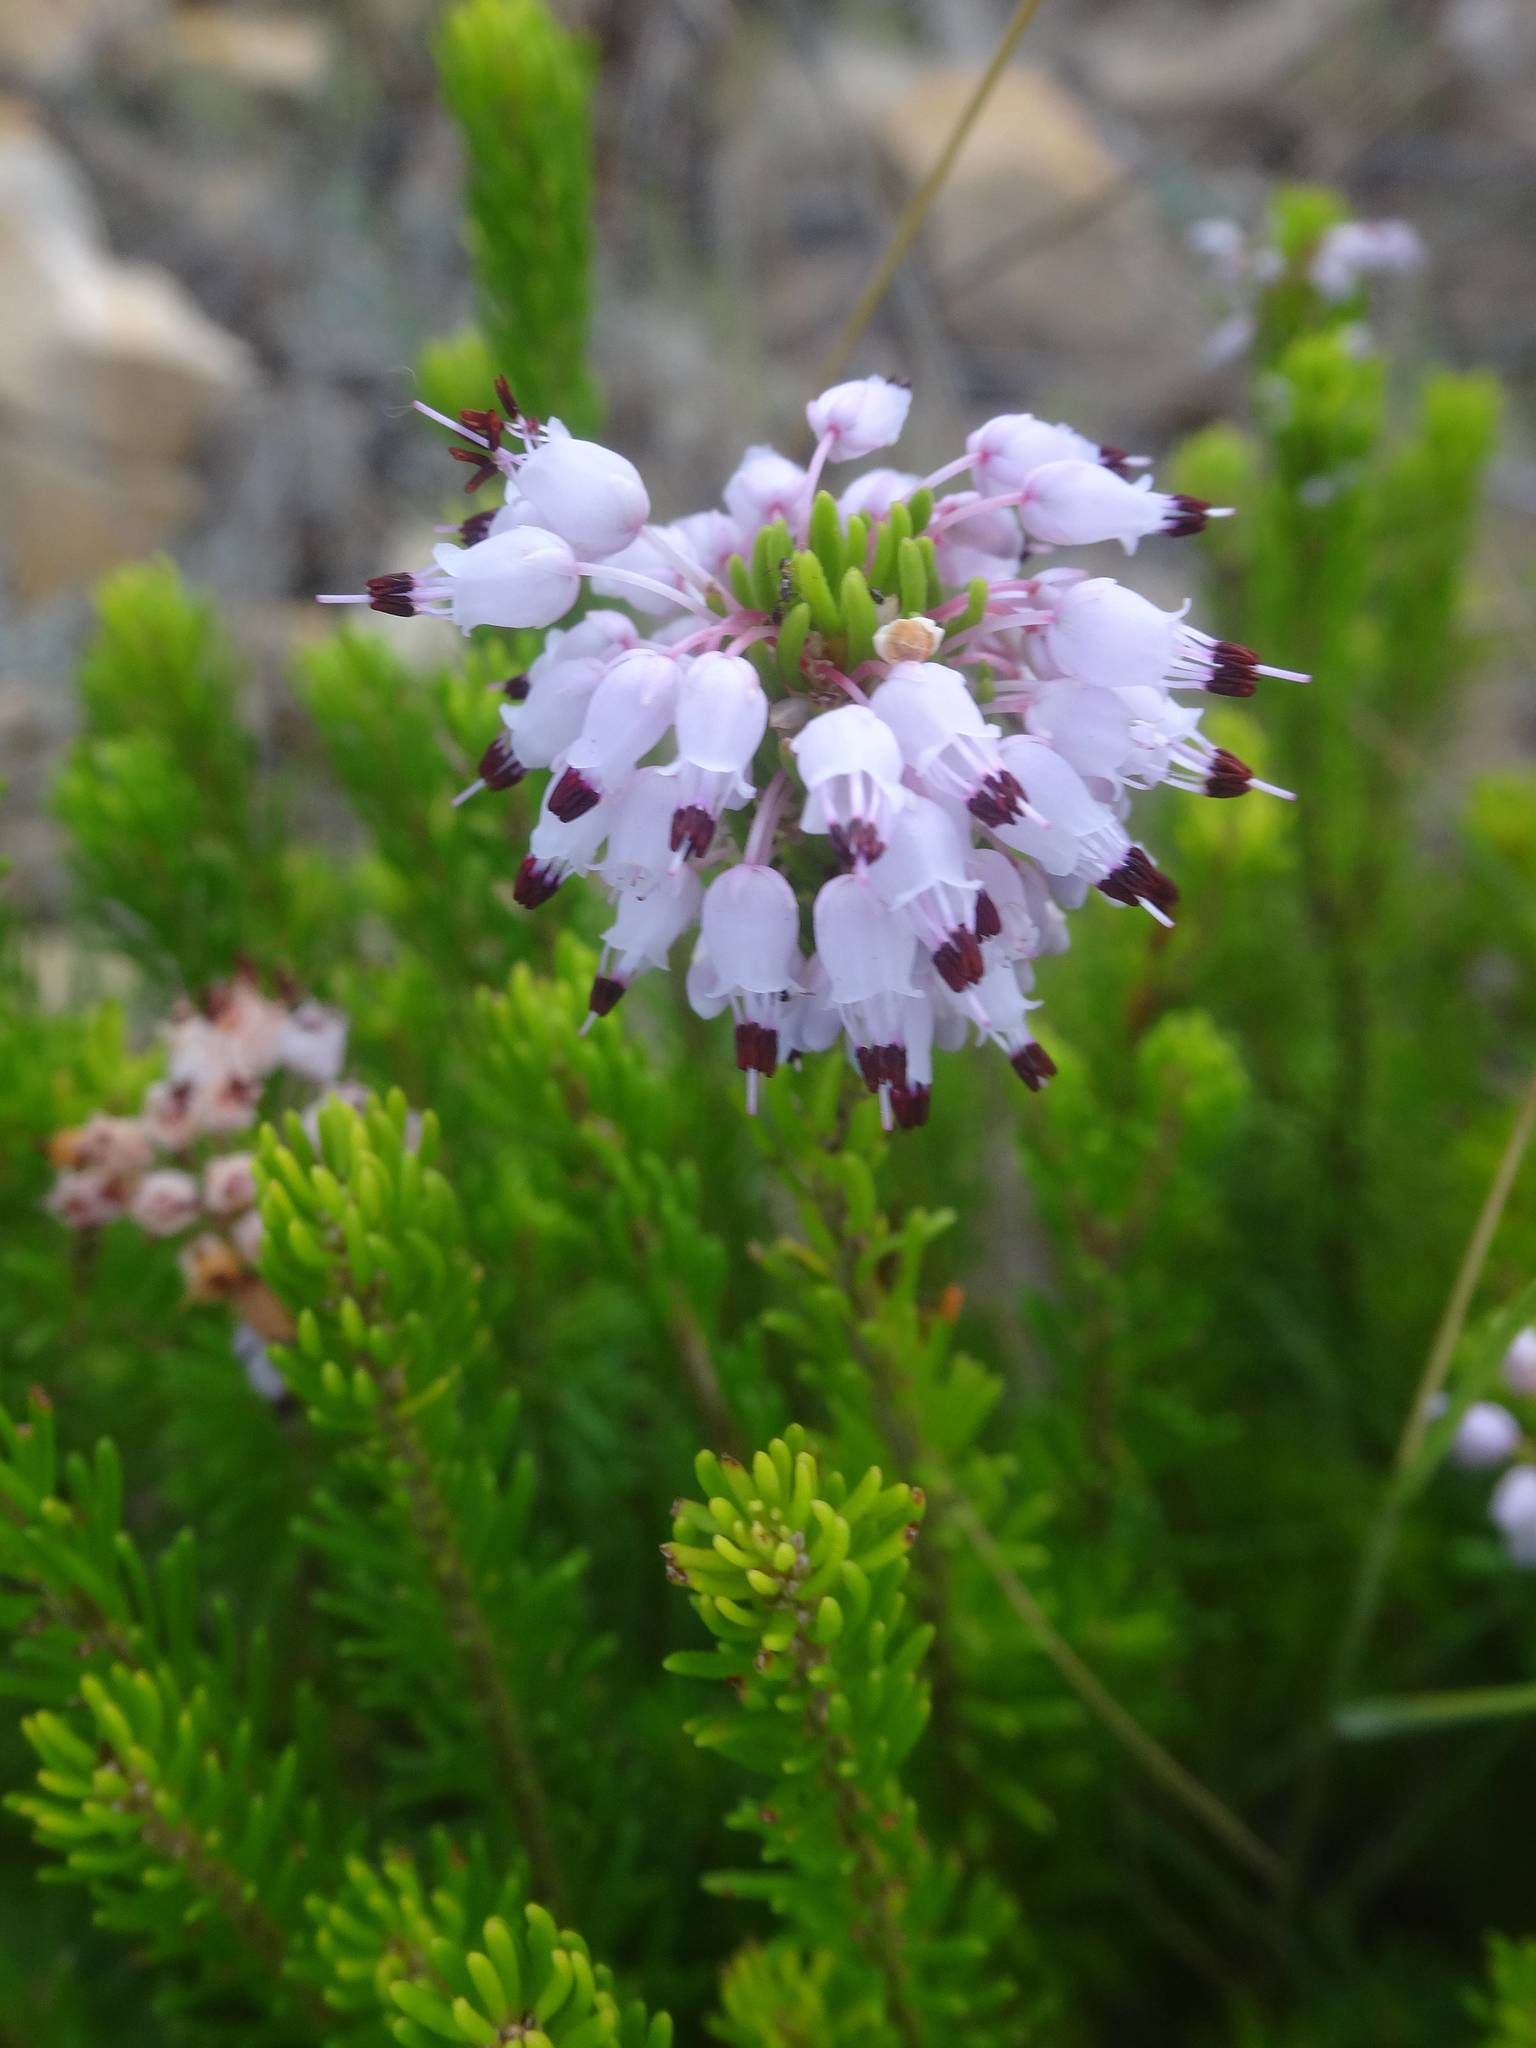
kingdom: Plantae
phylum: Tracheophyta
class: Magnoliopsida
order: Ericales
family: Ericaceae
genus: Erica
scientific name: Erica multiflora
